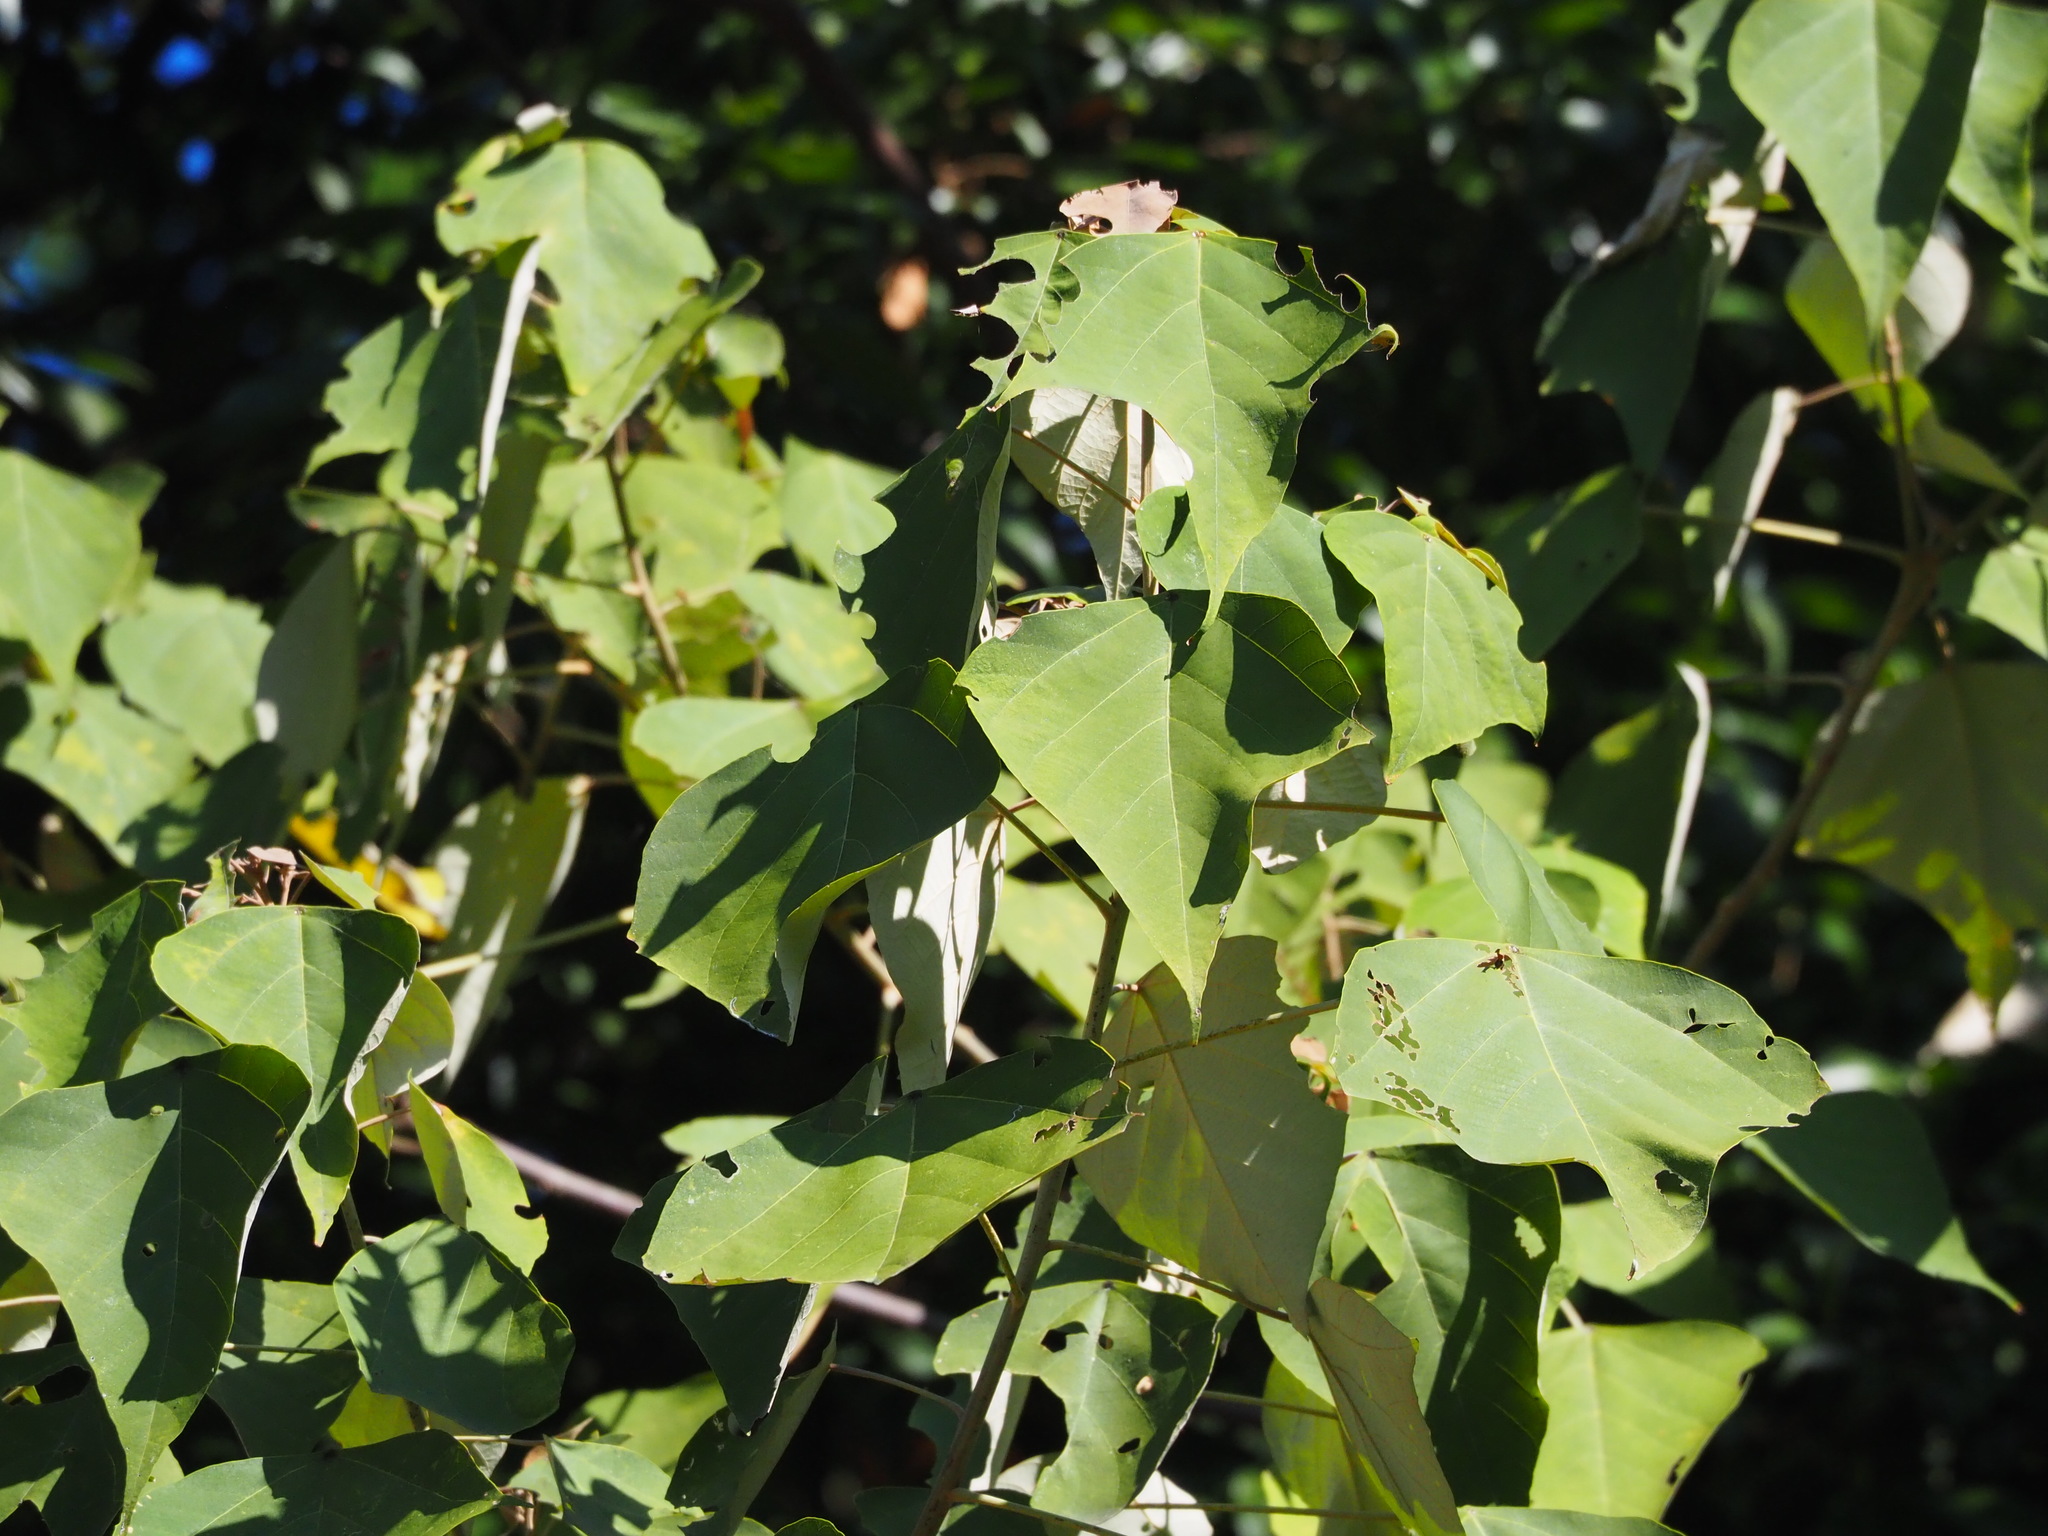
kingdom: Plantae
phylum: Tracheophyta
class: Magnoliopsida
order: Malpighiales
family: Euphorbiaceae
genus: Mallotus
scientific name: Mallotus paniculatus
